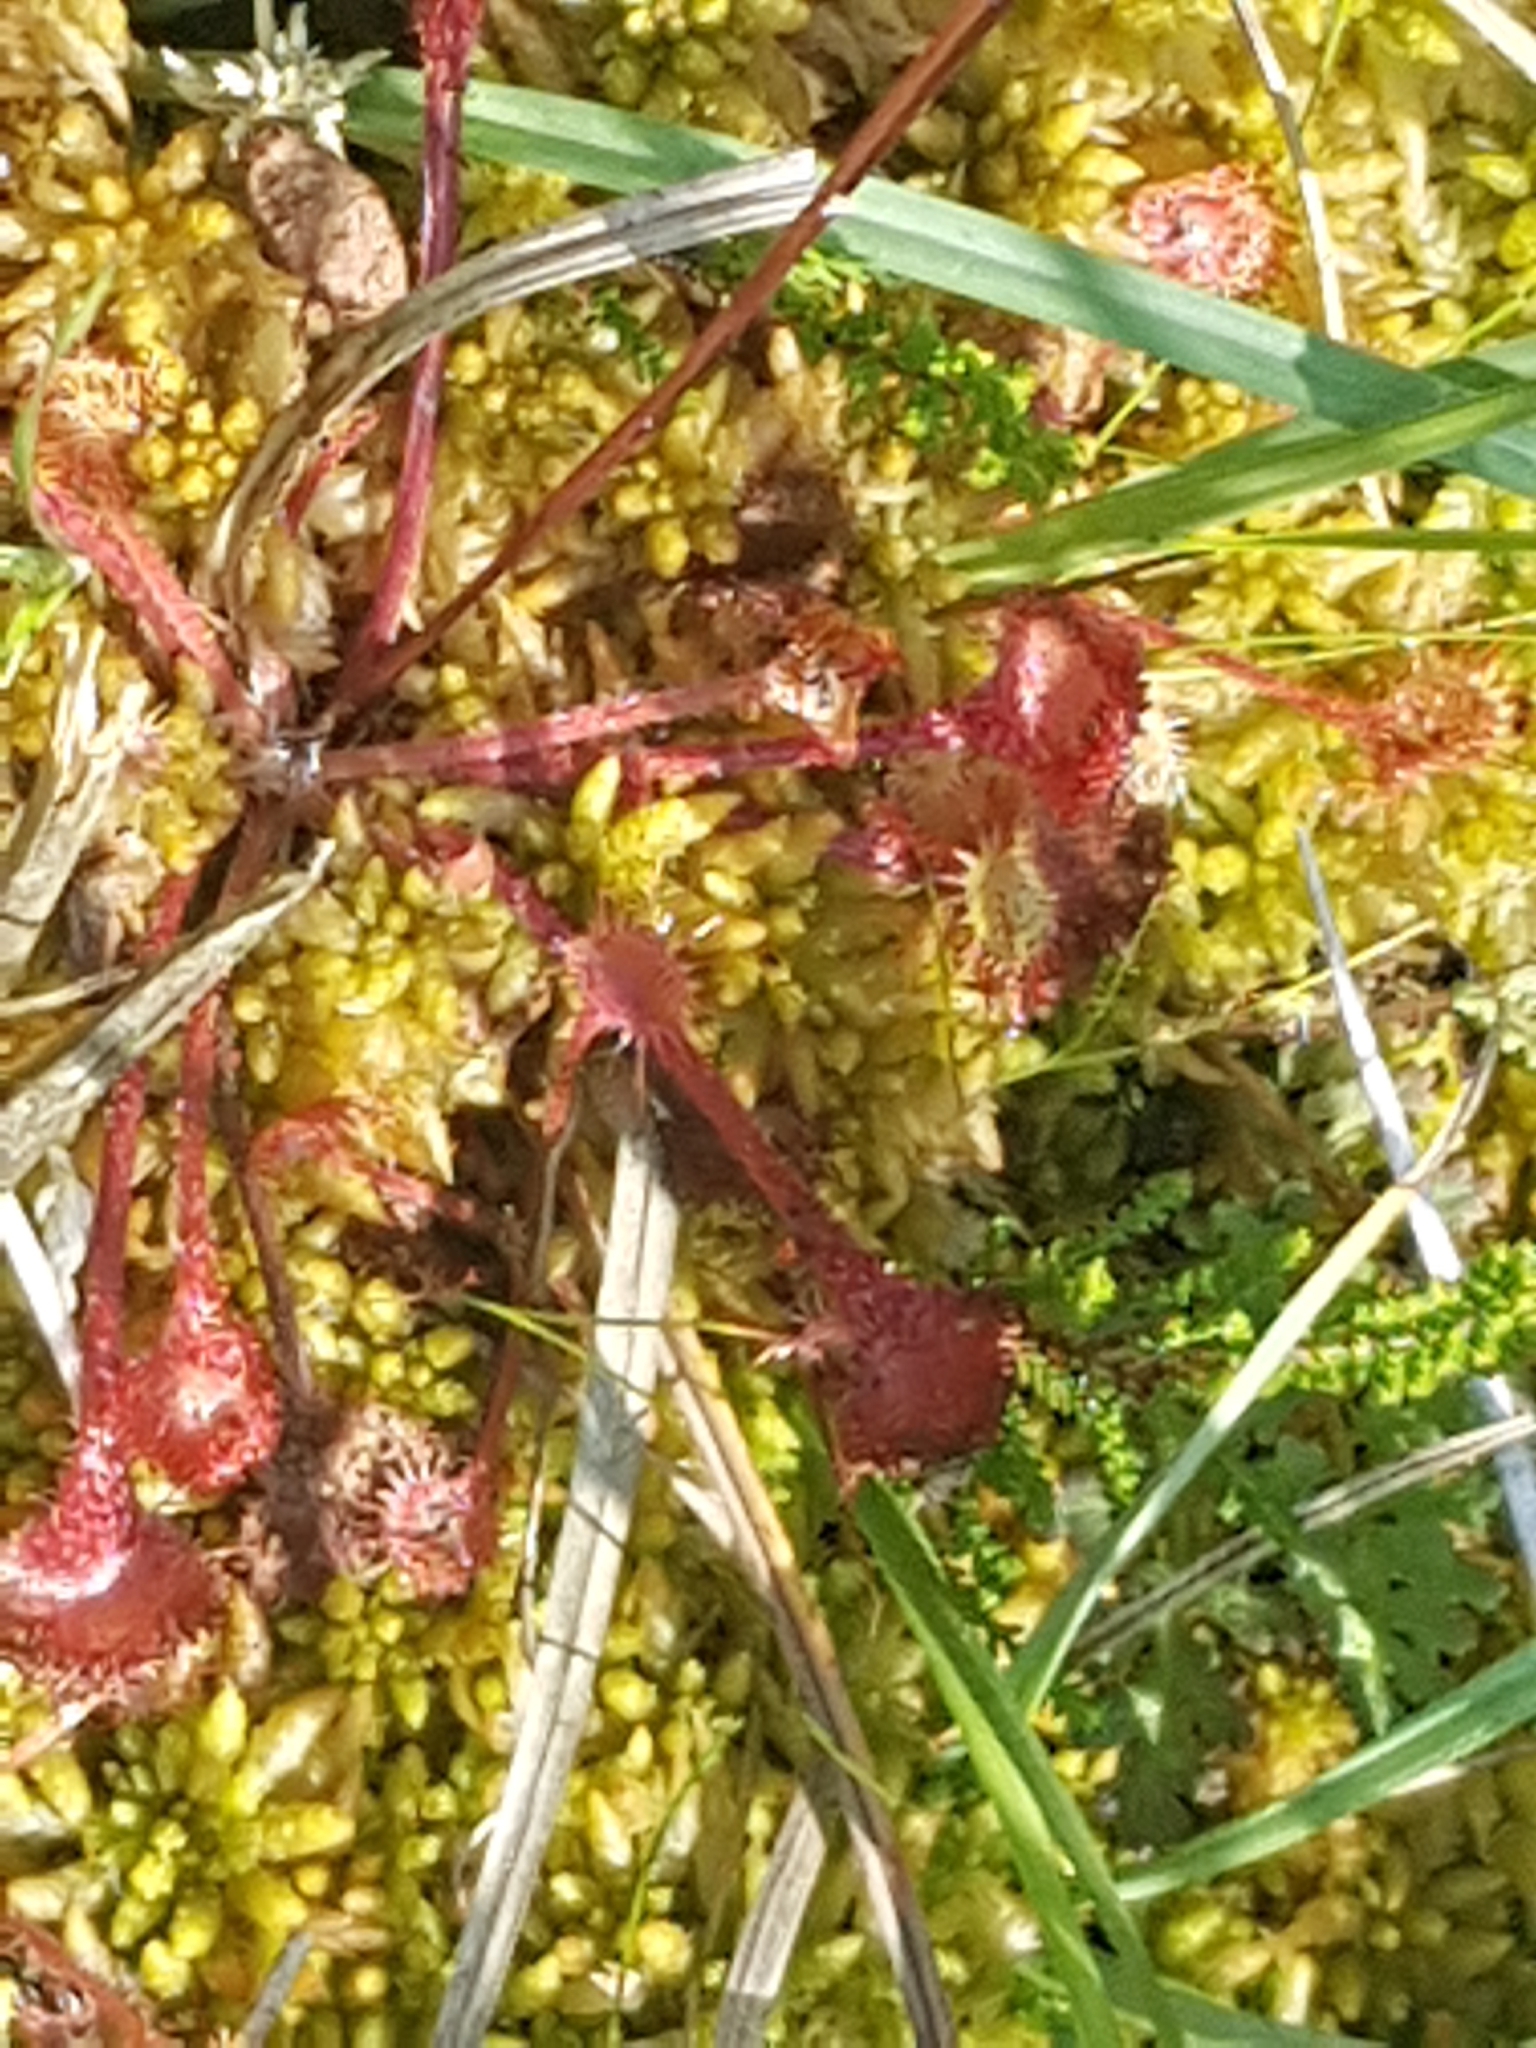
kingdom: Plantae
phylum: Tracheophyta
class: Magnoliopsida
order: Caryophyllales
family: Droseraceae
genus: Drosera
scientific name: Drosera rotundifolia
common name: Round-leaved sundew
